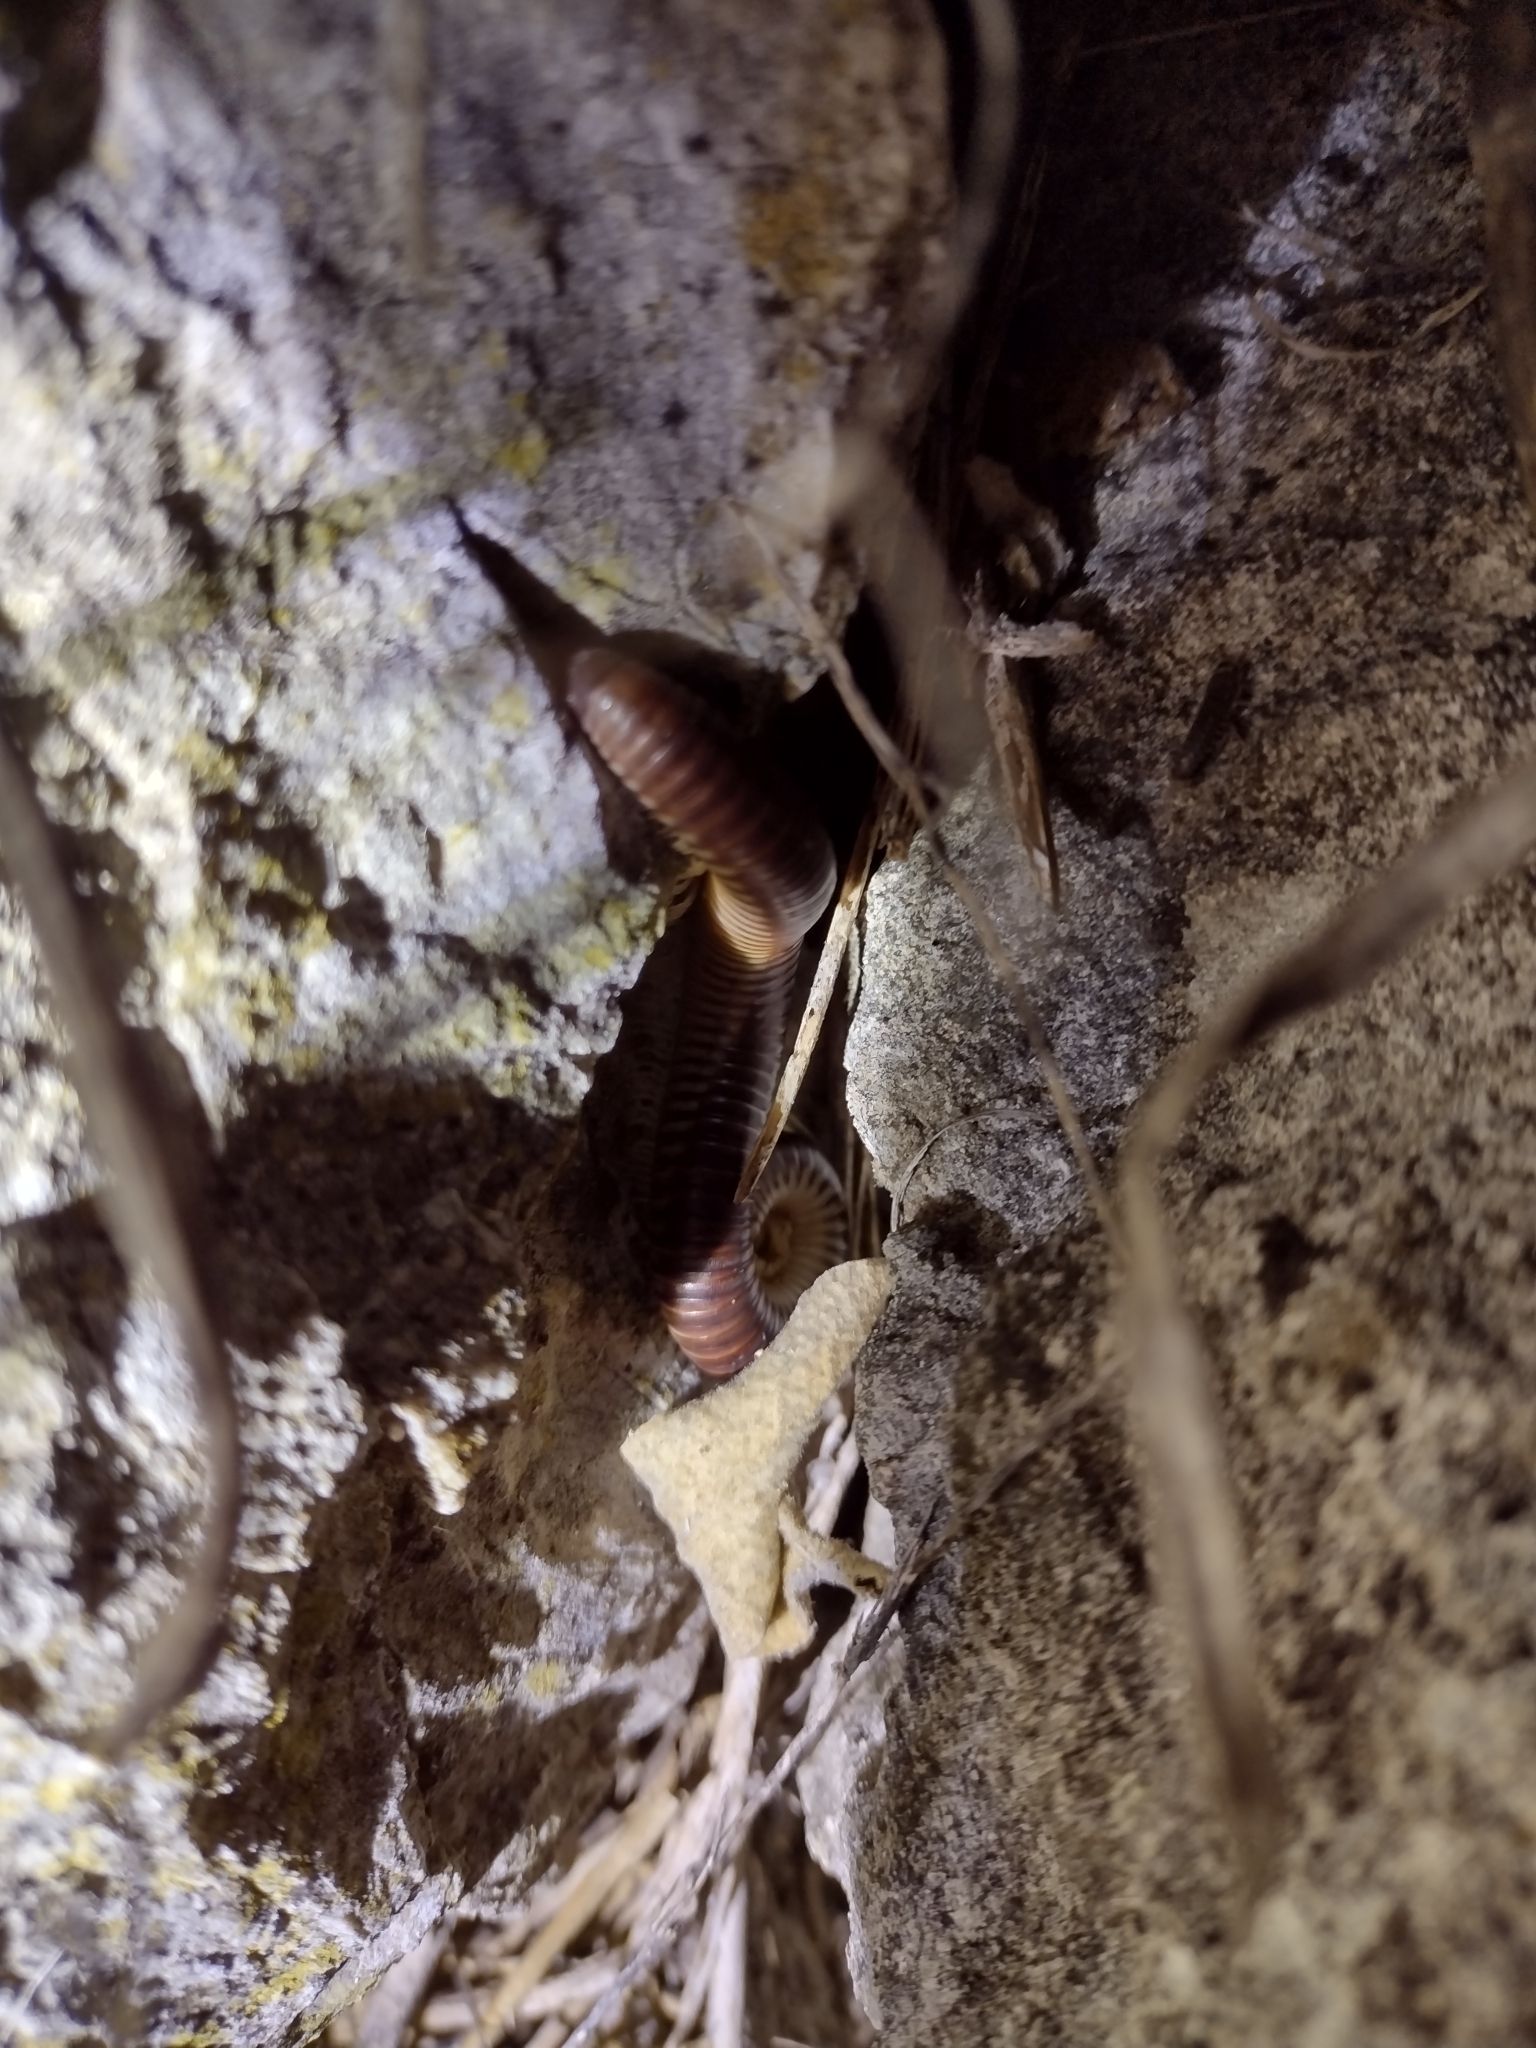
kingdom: Animalia
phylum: Arthropoda
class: Diplopoda
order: Julida
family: Julidae
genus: Pachyiulus
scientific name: Pachyiulus flavipes
